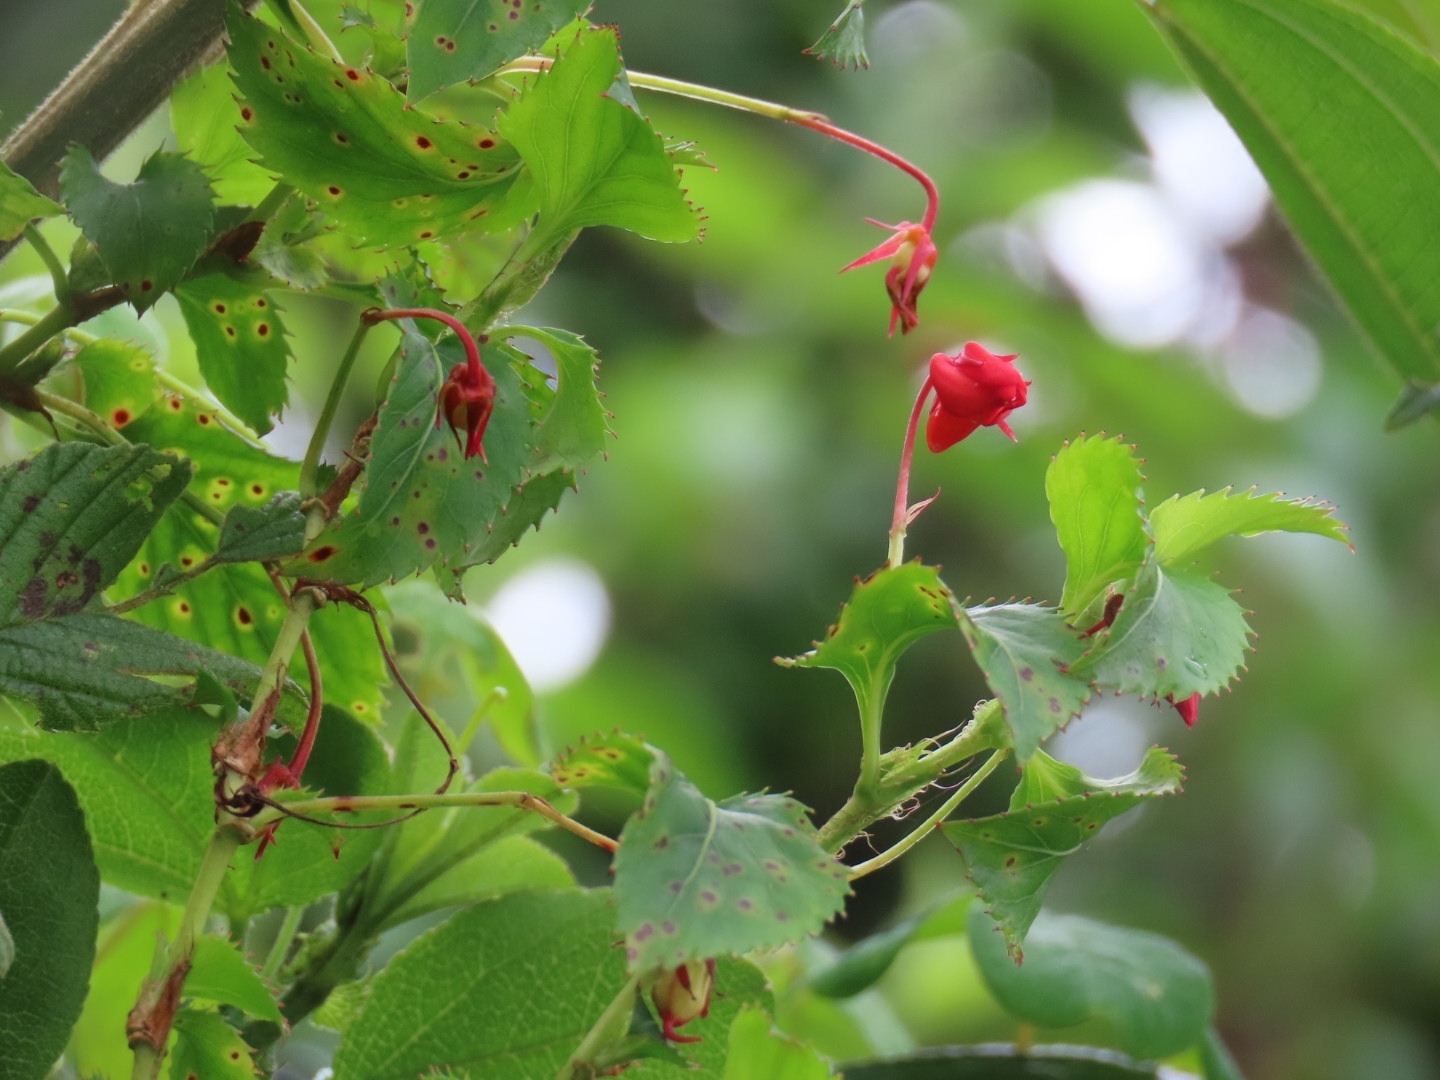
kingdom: Plantae
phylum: Tracheophyta
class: Magnoliopsida
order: Malpighiales
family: Violaceae
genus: Viola
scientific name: Viola arguta
